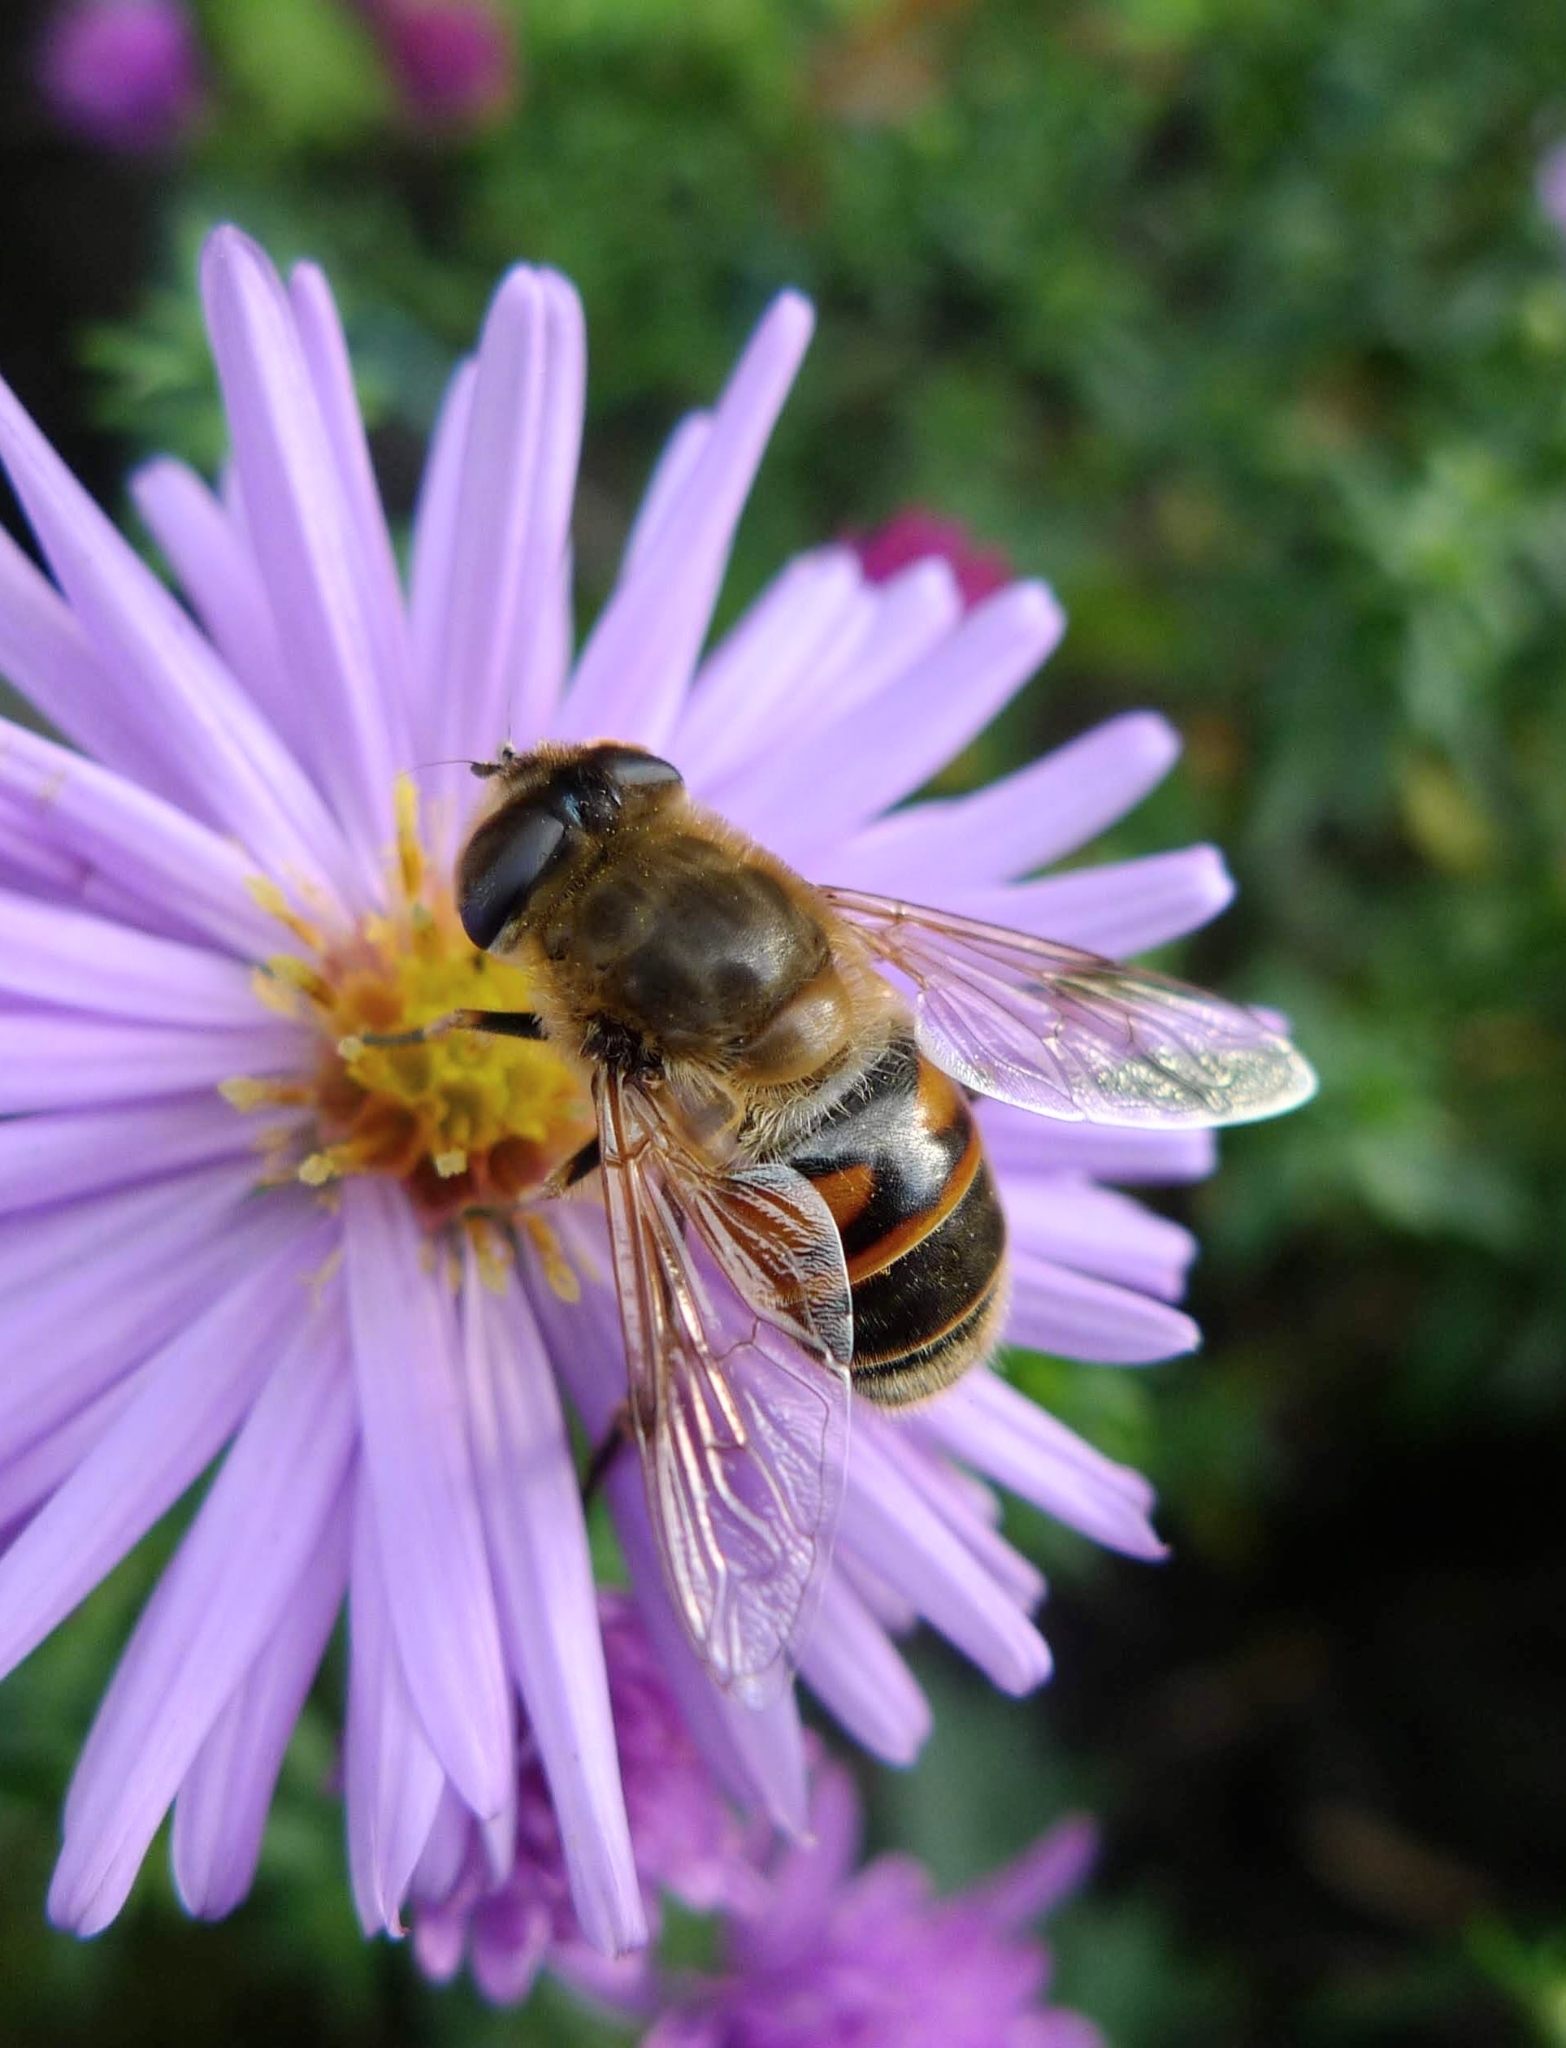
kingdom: Animalia
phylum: Arthropoda
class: Insecta
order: Diptera
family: Syrphidae
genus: Eristalis
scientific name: Eristalis tenax
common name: Drone fly
